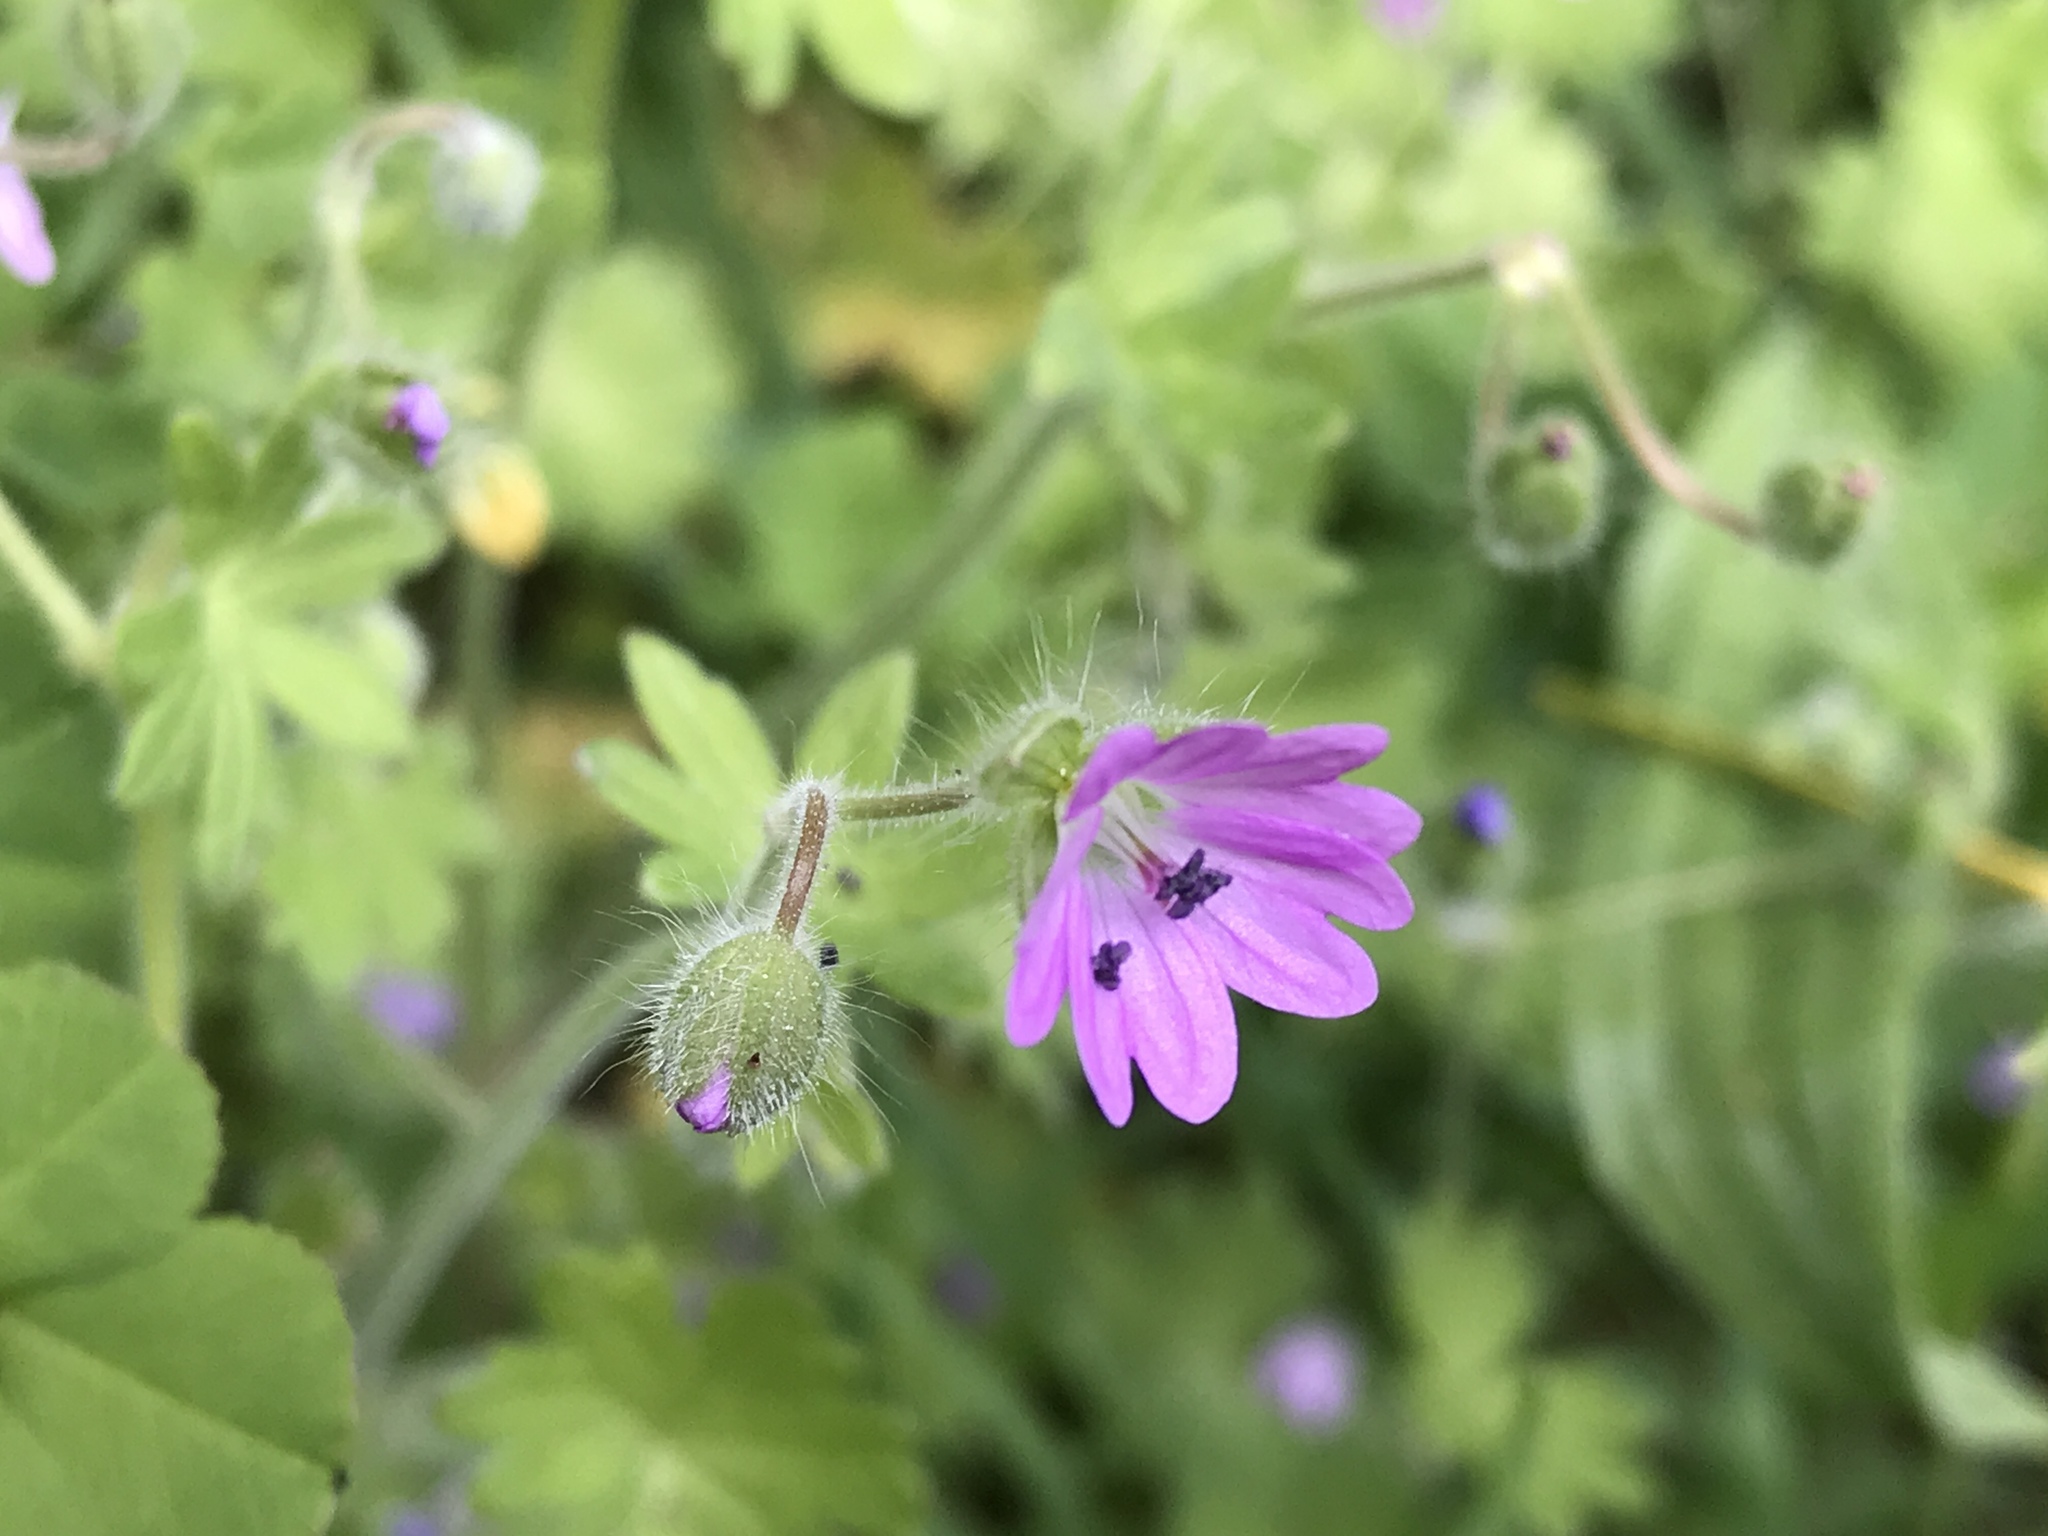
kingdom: Plantae
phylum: Tracheophyta
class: Magnoliopsida
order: Geraniales
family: Geraniaceae
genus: Geranium
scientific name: Geranium molle
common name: Dove's-foot crane's-bill
